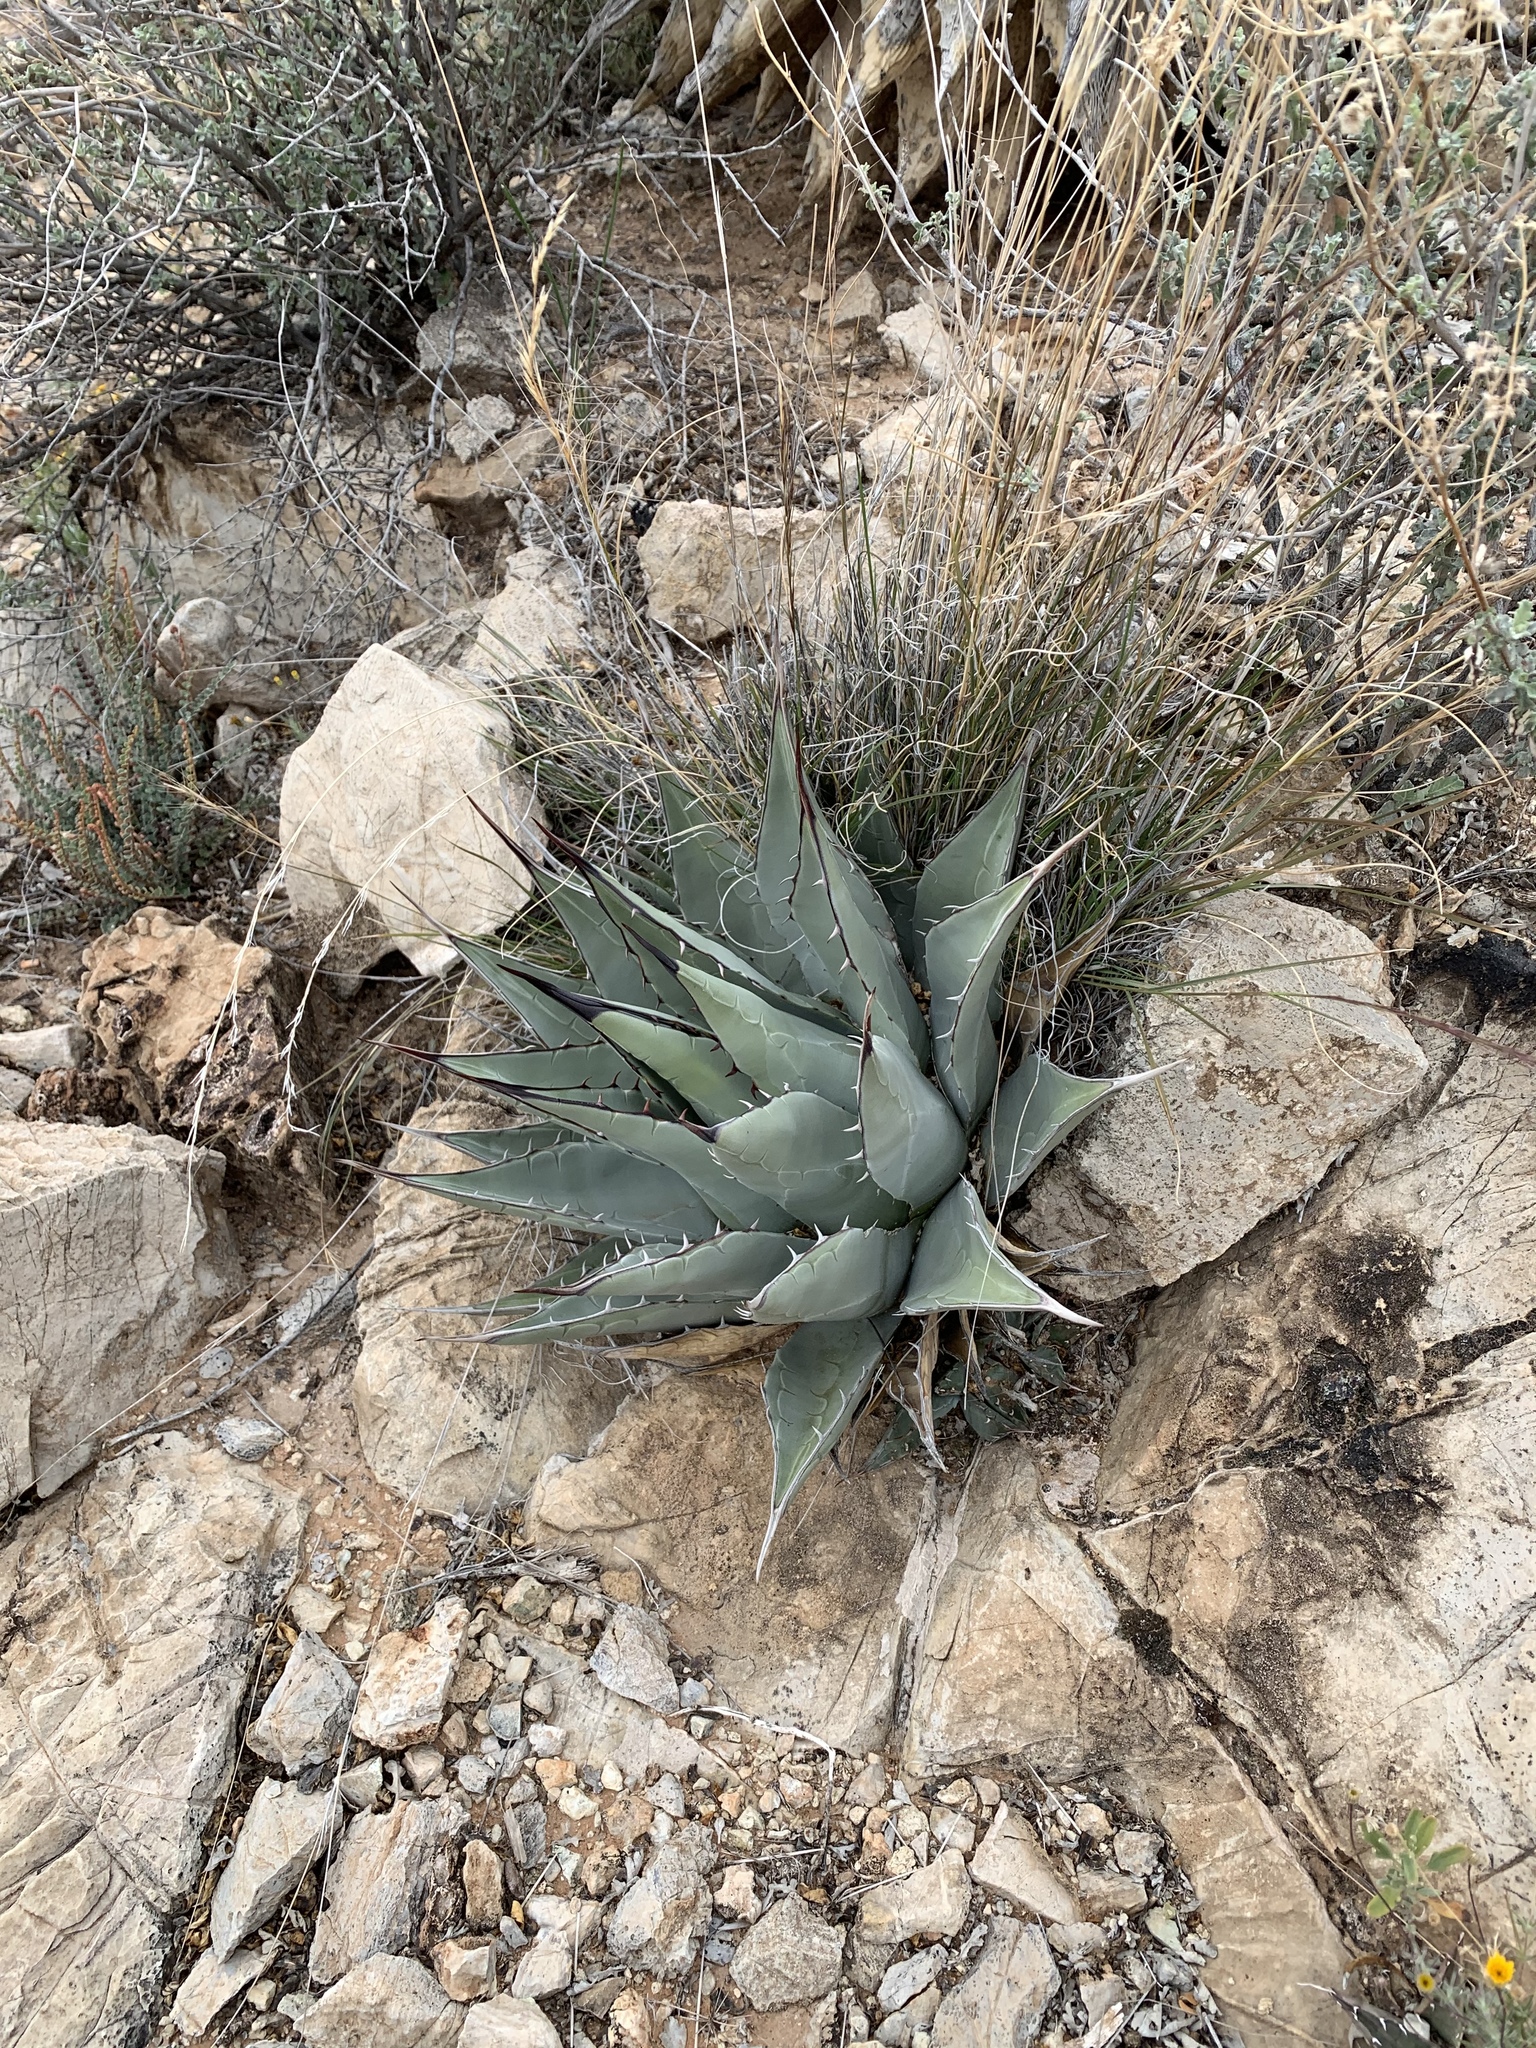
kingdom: Plantae
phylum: Tracheophyta
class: Liliopsida
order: Asparagales
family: Asparagaceae
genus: Agave
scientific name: Agave parryi
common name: Parry's agave
